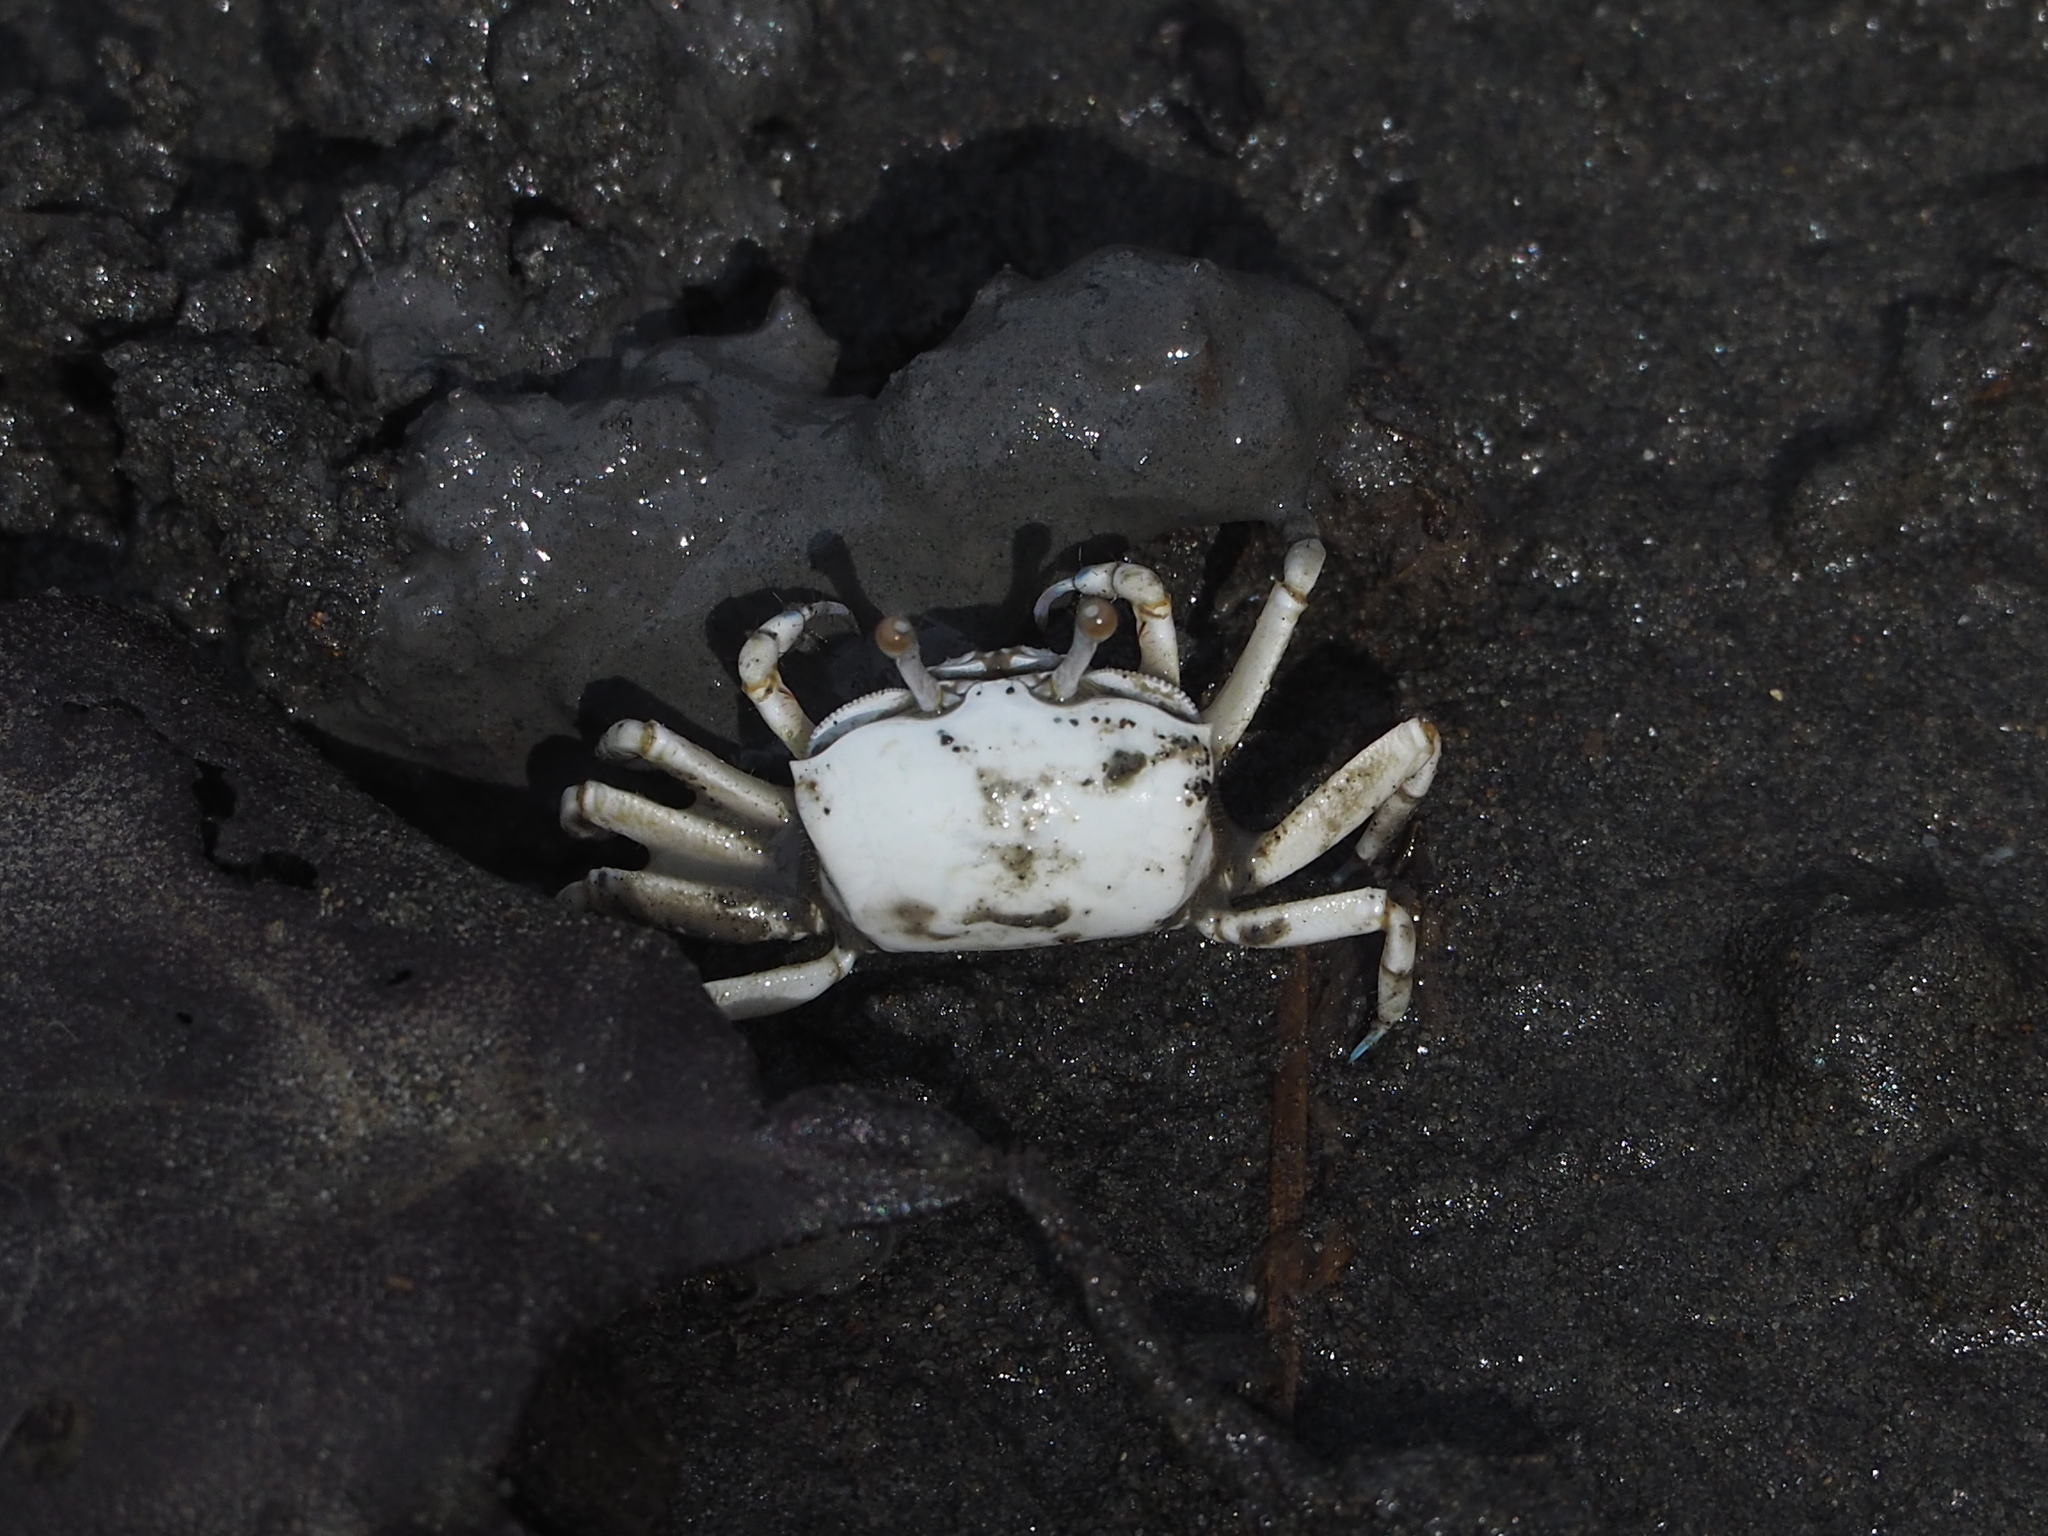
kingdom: Animalia
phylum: Arthropoda
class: Malacostraca
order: Decapoda
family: Ocypodidae
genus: Austruca
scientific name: Austruca lactea
